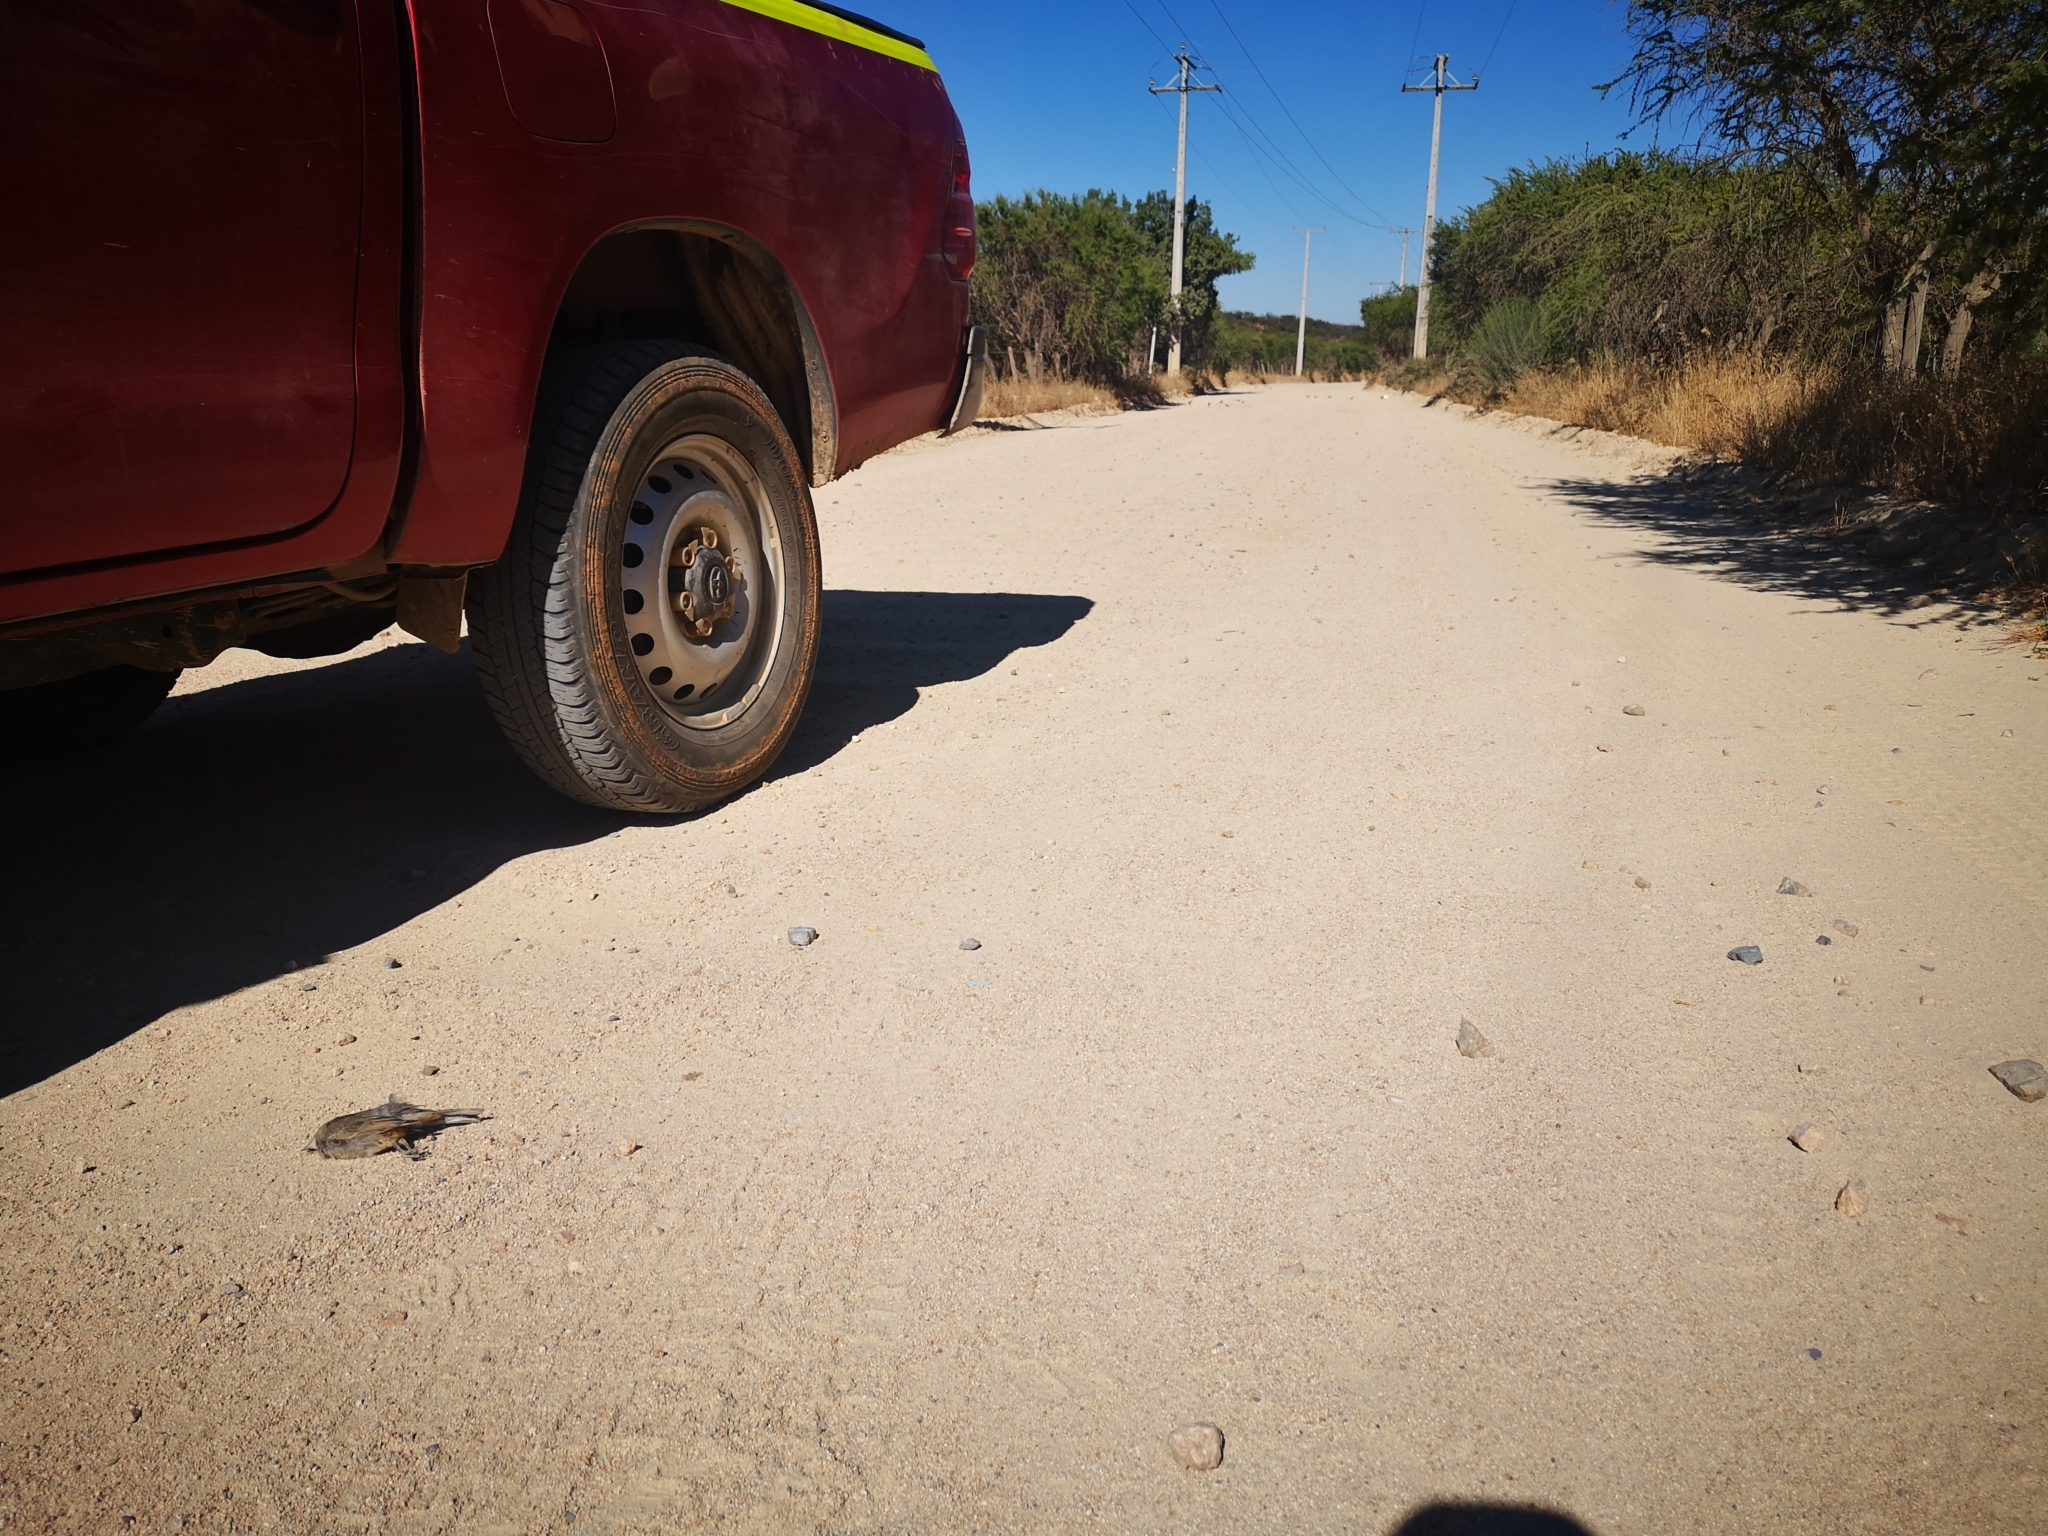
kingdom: Animalia
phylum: Chordata
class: Aves
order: Passeriformes
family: Thraupidae
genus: Diuca
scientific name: Diuca diuca
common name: Common diuca finch
